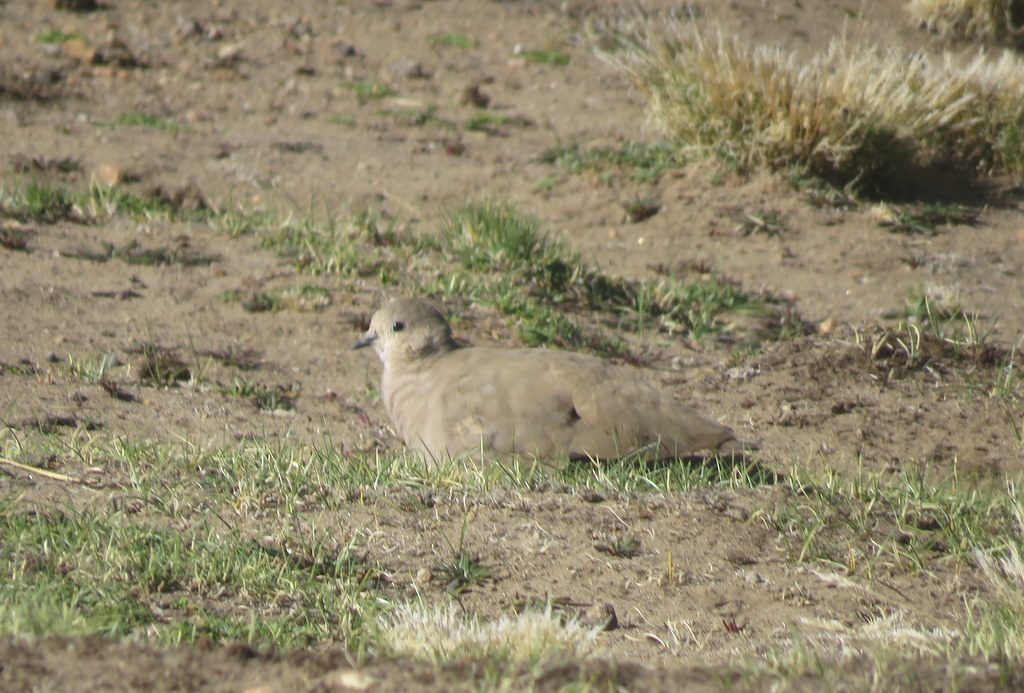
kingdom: Animalia
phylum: Chordata
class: Aves
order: Columbiformes
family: Columbidae
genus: Metriopelia
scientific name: Metriopelia aymara
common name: Golden-spotted ground dove
